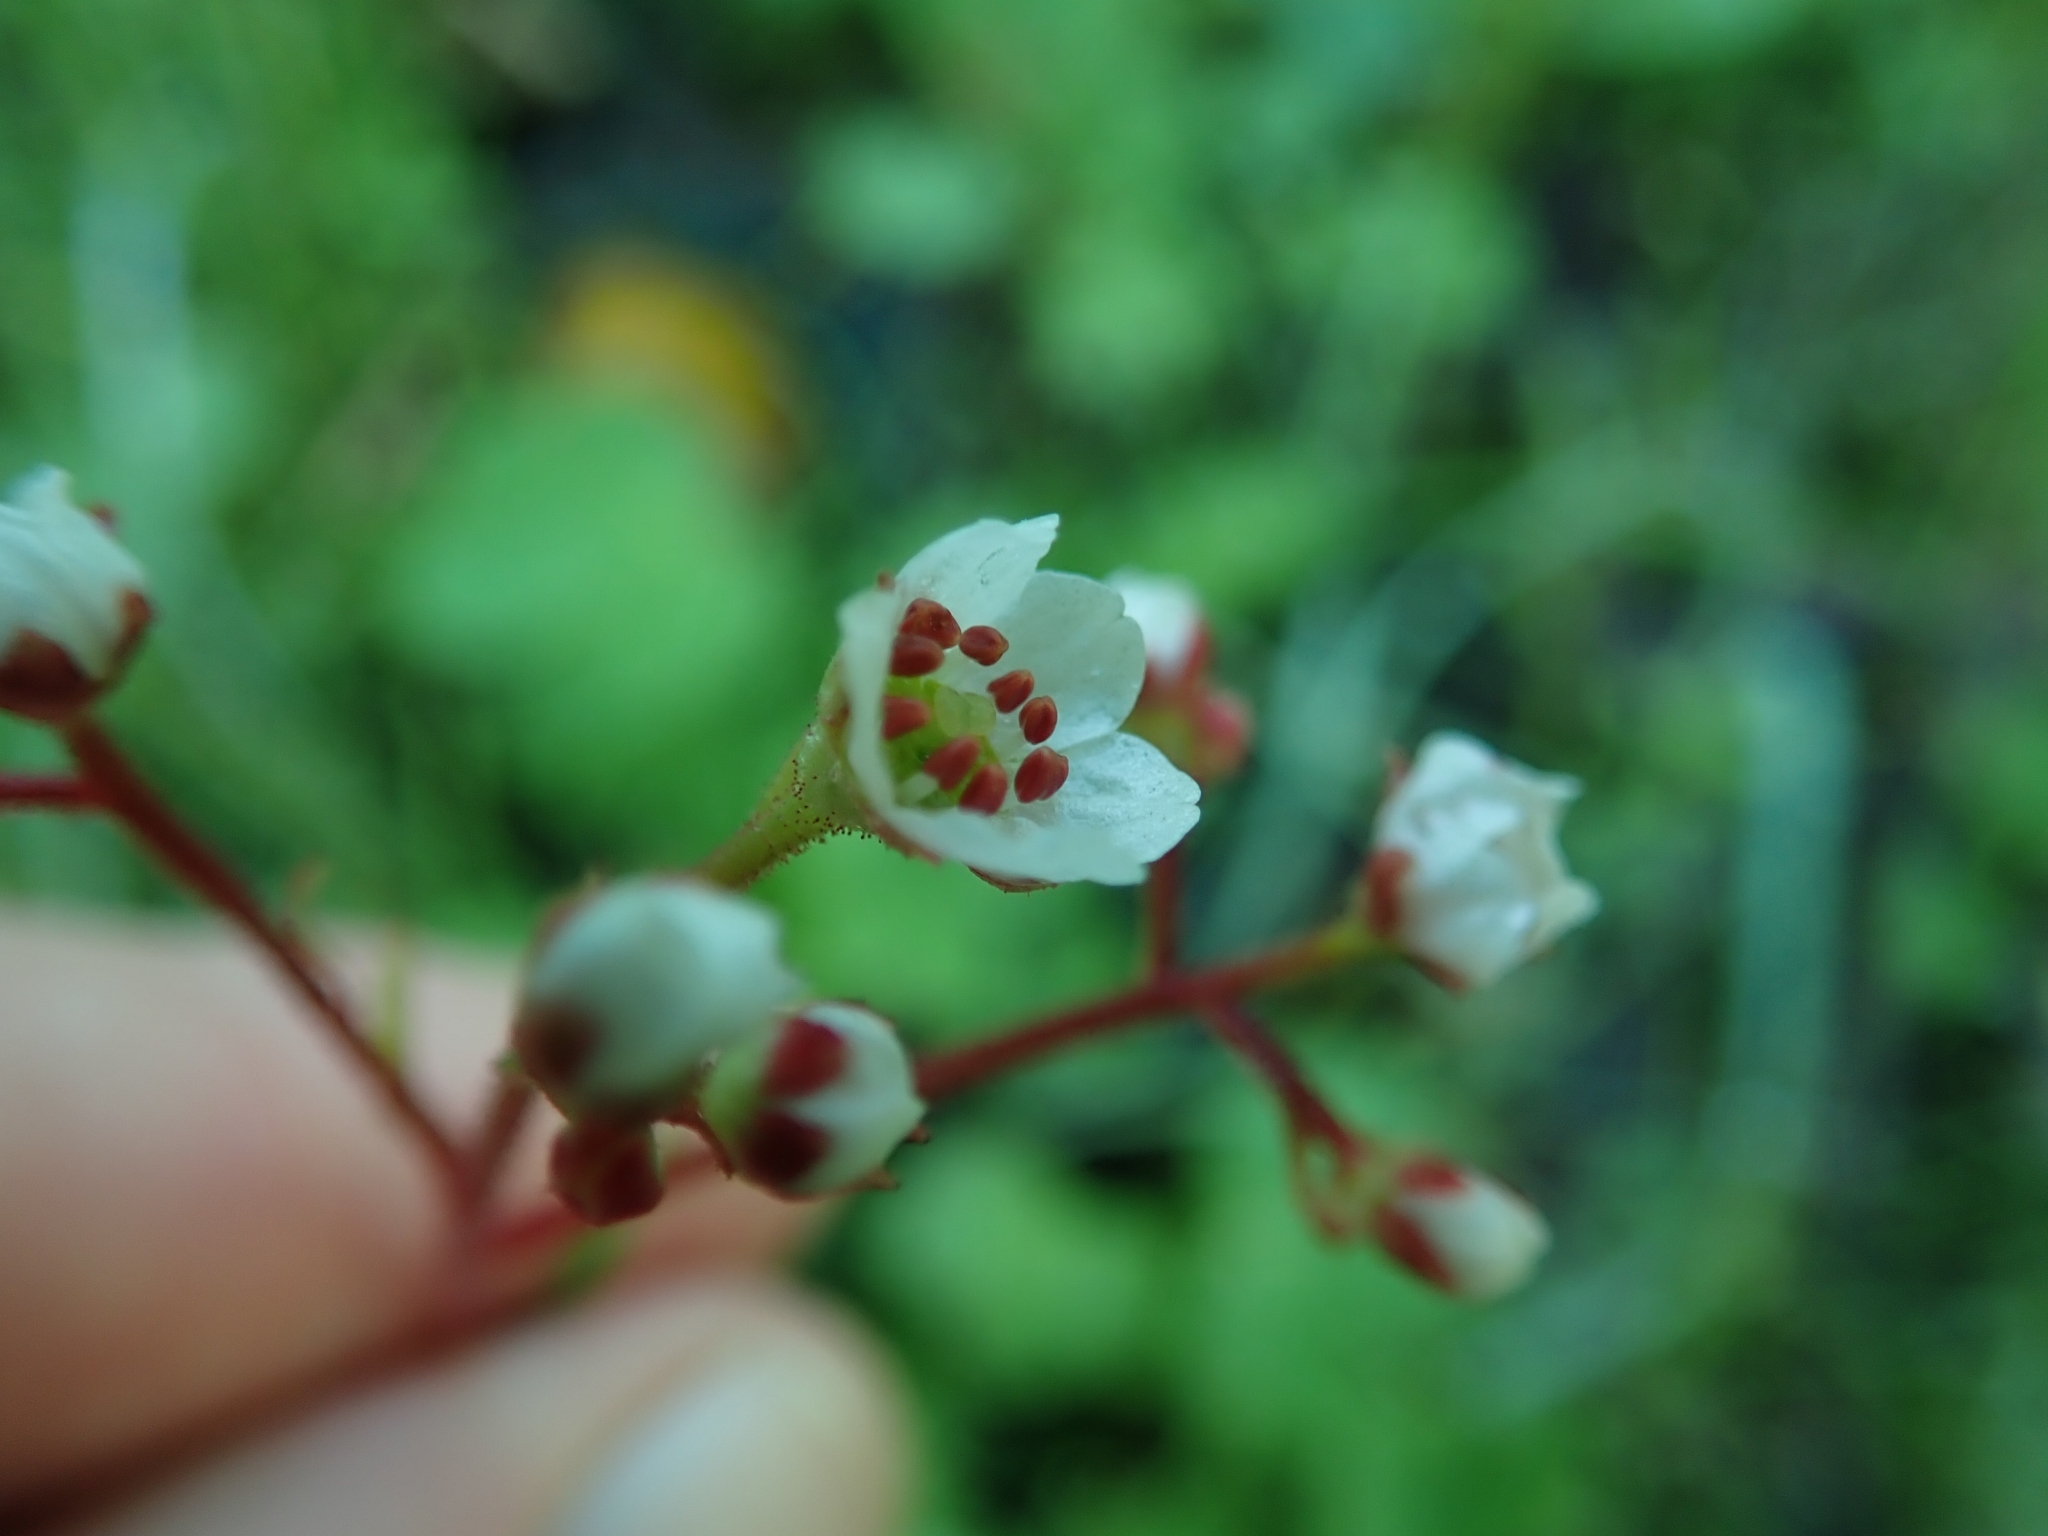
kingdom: Plantae
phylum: Tracheophyta
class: Magnoliopsida
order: Saxifragales
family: Saxifragaceae
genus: Micranthes
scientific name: Micranthes californica
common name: California saxifrage
